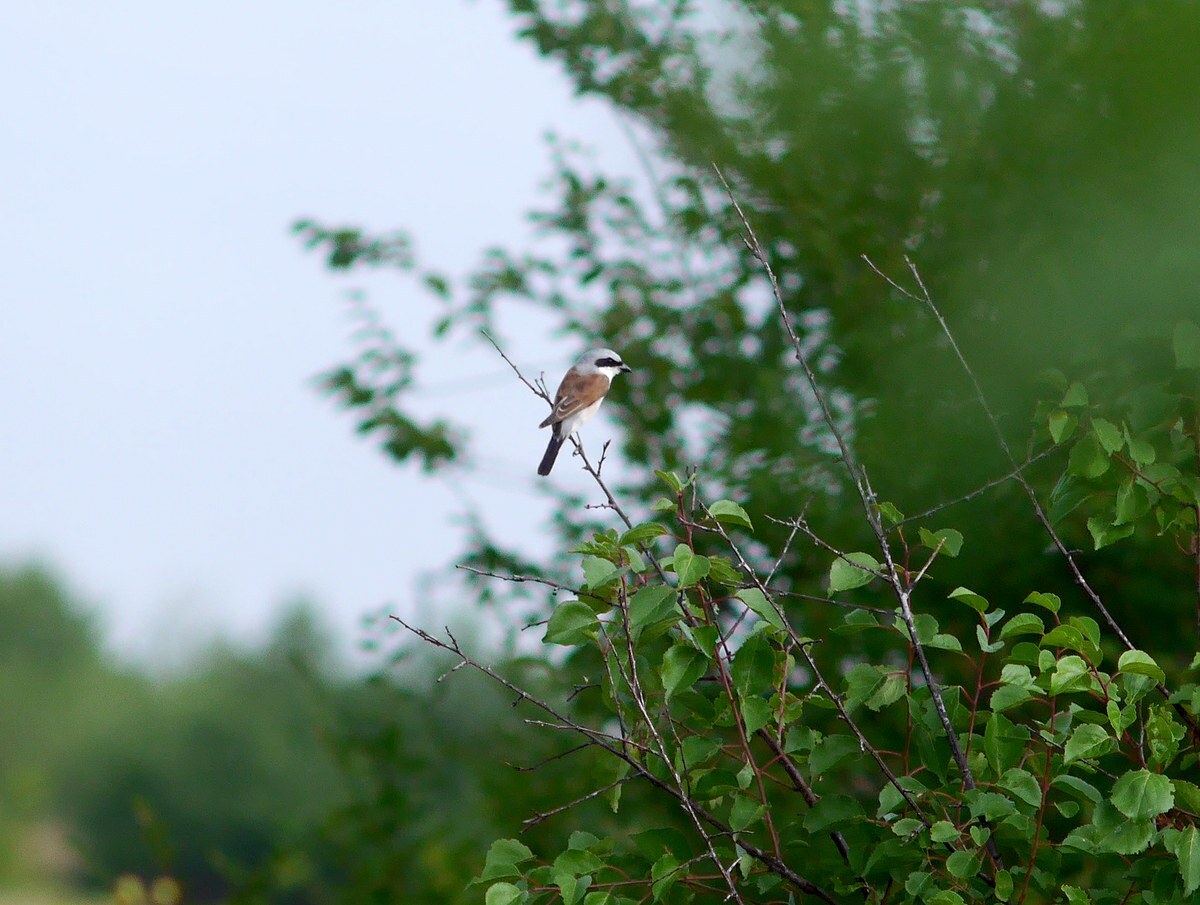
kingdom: Animalia
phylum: Chordata
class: Aves
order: Passeriformes
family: Laniidae
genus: Lanius
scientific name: Lanius collurio
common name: Red-backed shrike
